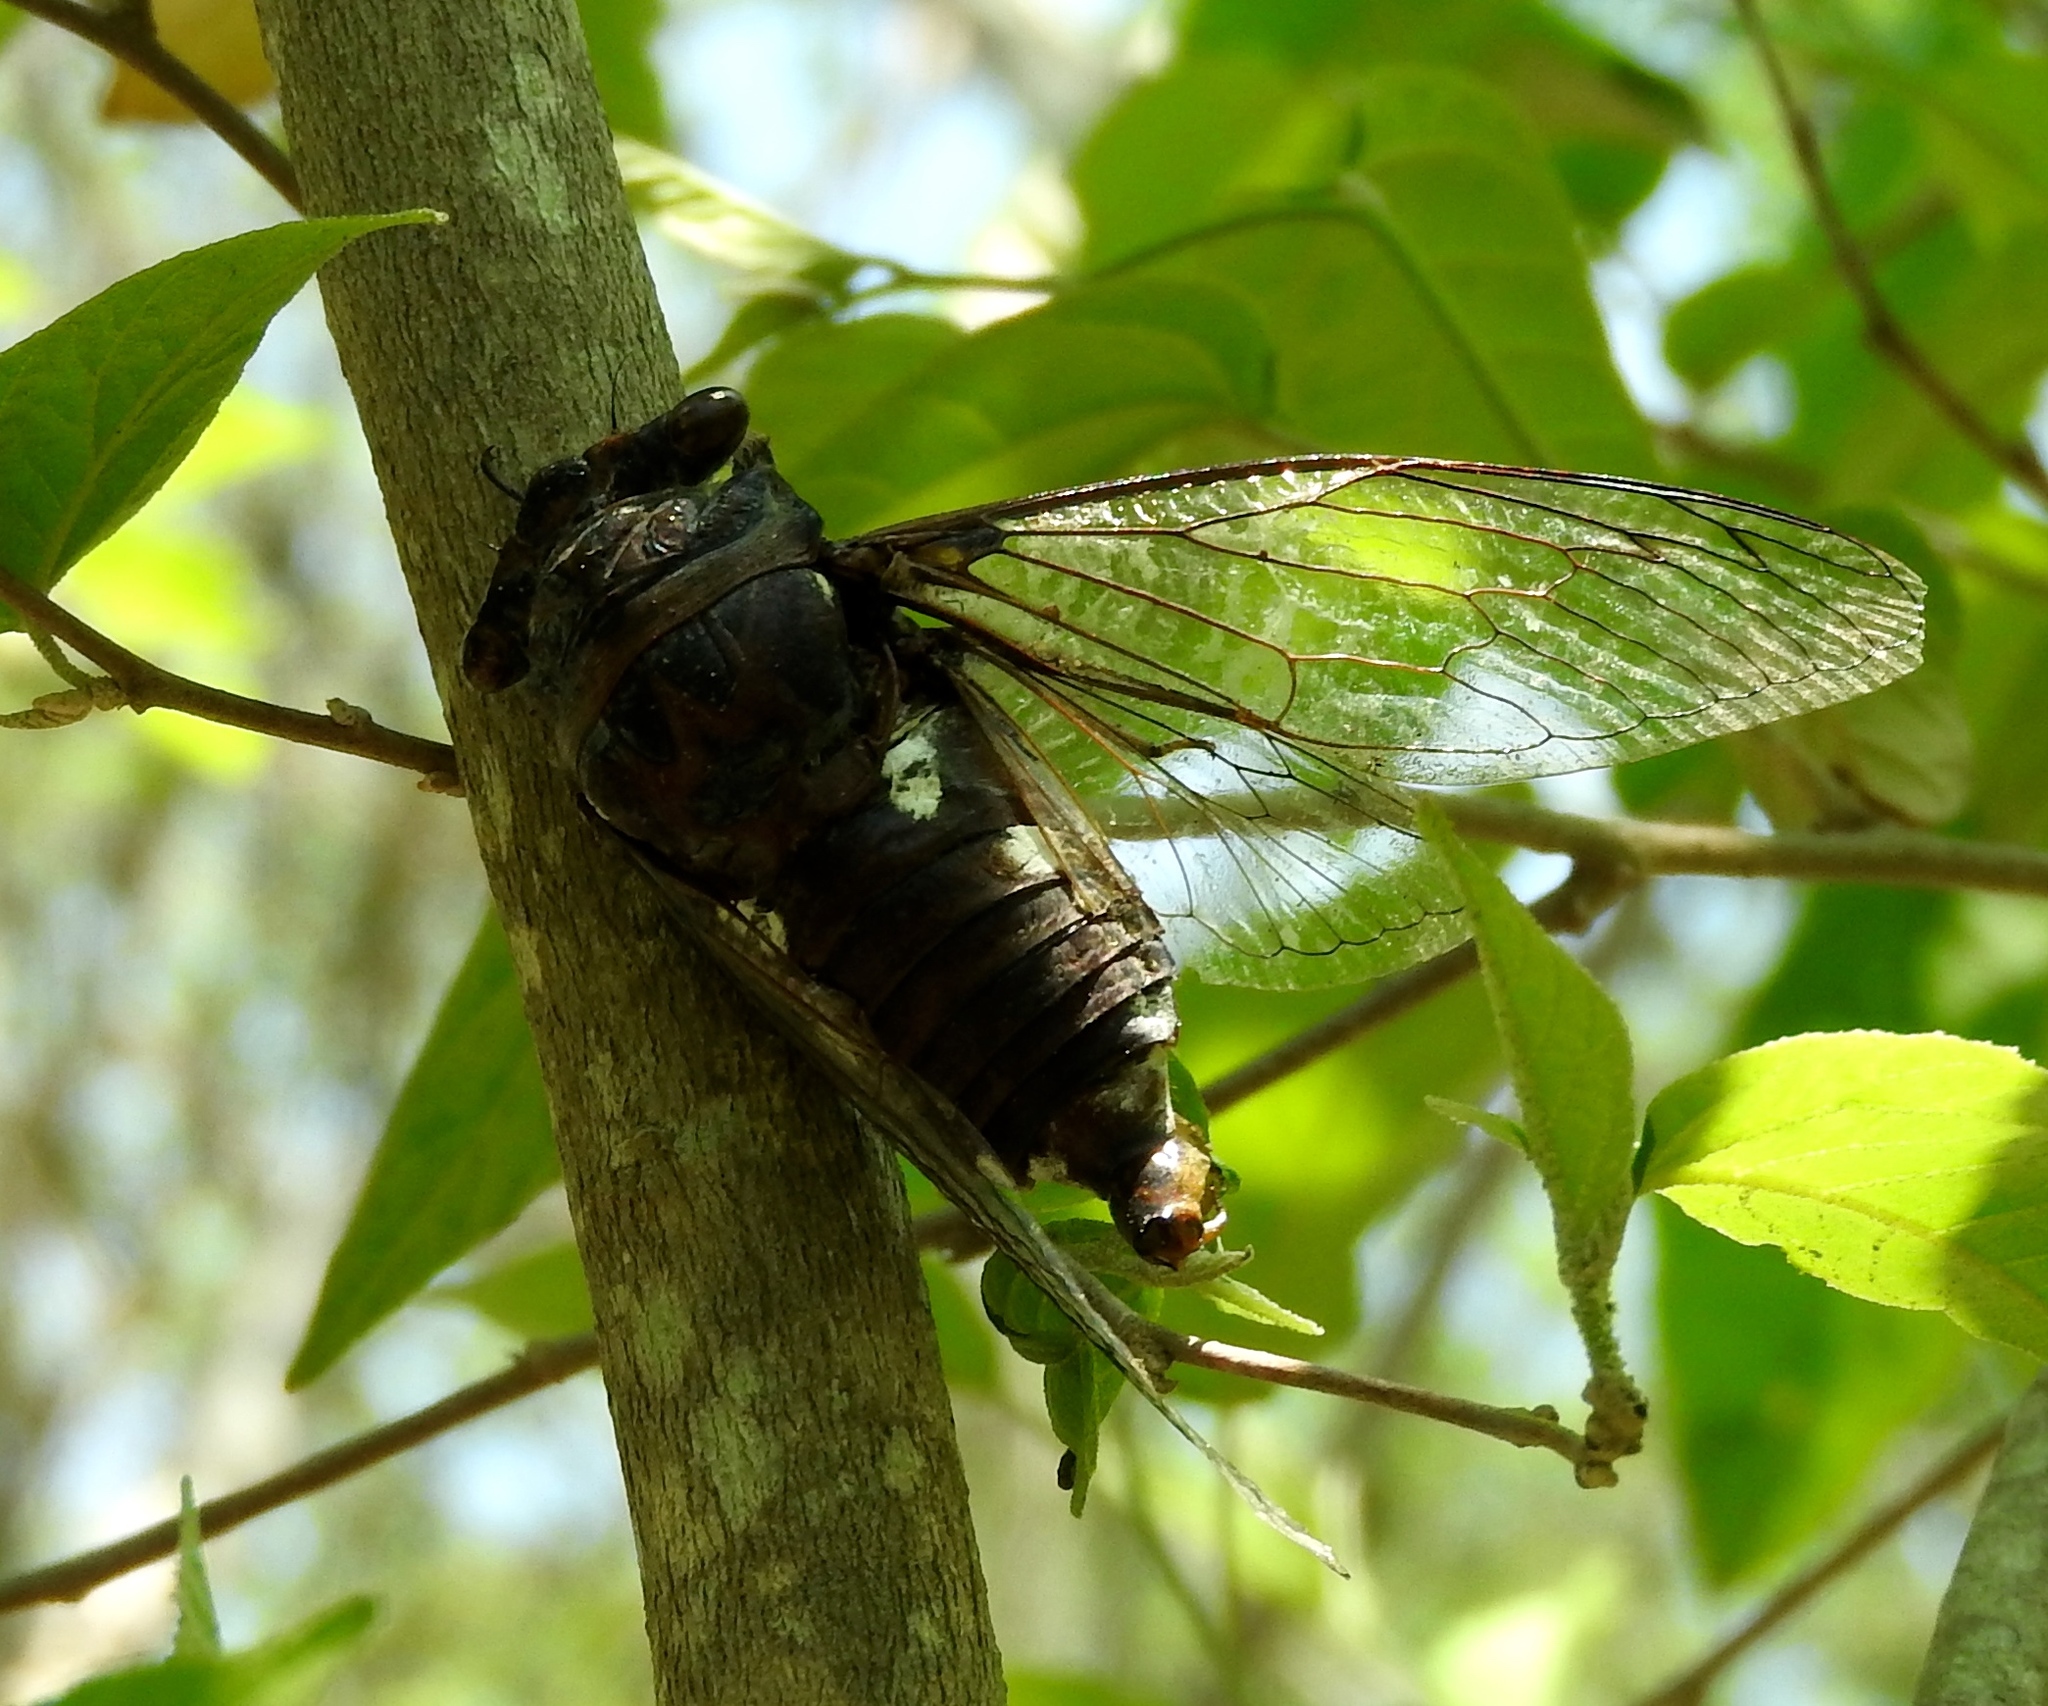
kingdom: Animalia
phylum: Arthropoda
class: Insecta
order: Hemiptera
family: Cicadidae
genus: Cornuplura
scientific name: Cornuplura curvispinosa
